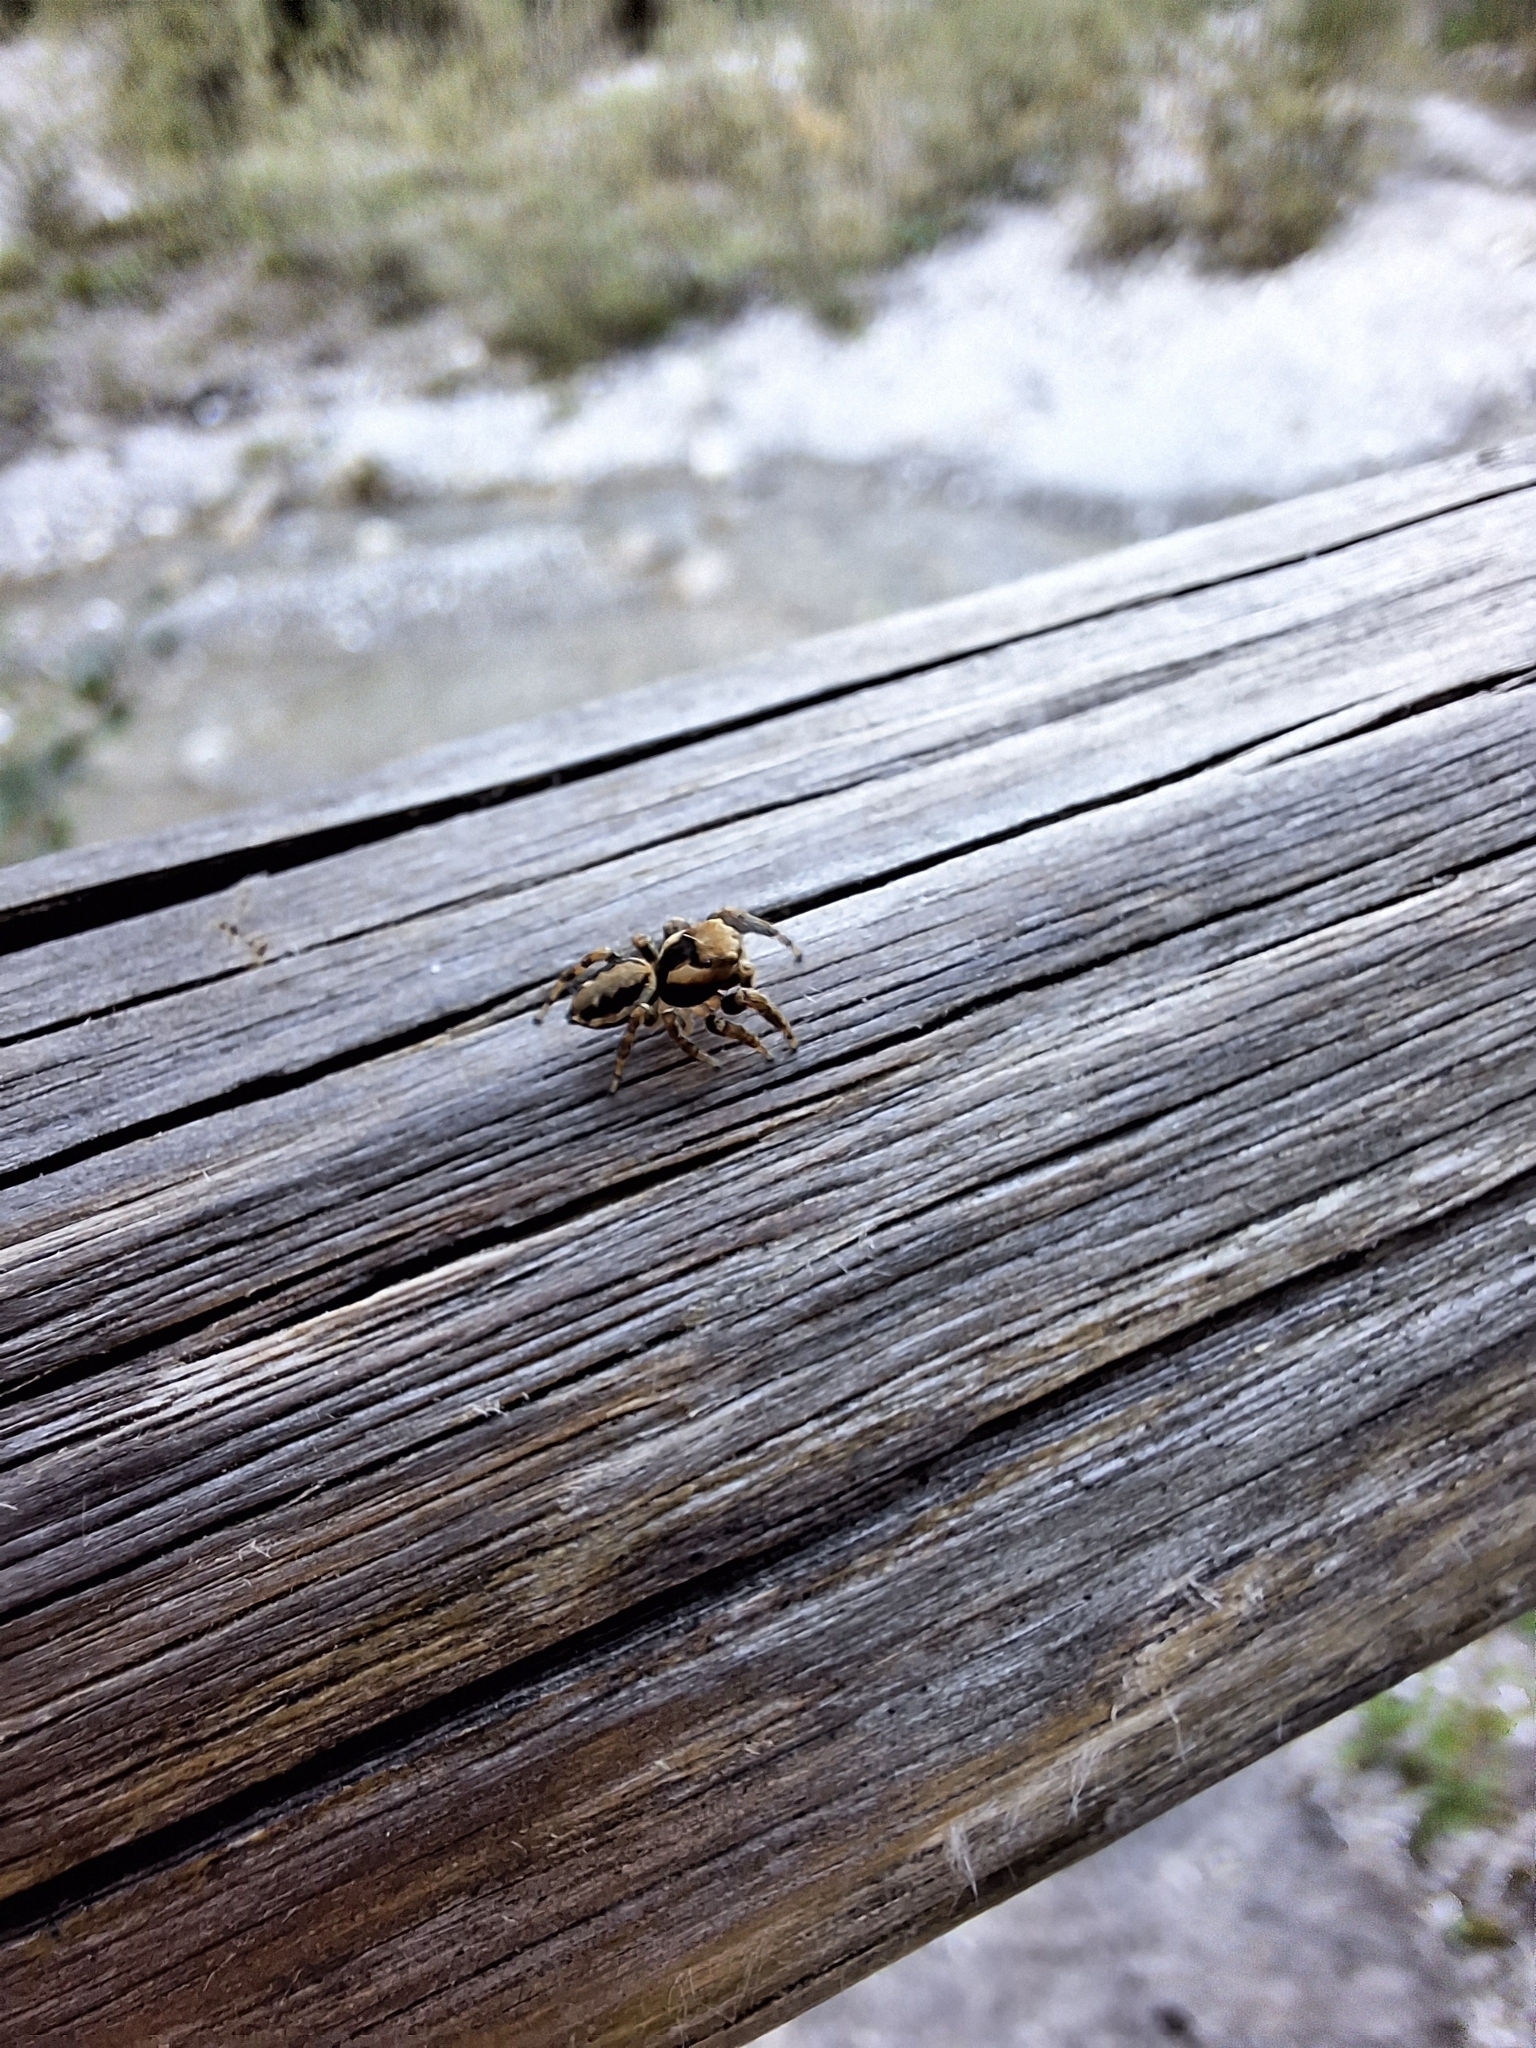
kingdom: Animalia
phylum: Arthropoda
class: Arachnida
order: Araneae
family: Salticidae
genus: Evarcha
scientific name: Evarcha falcata
